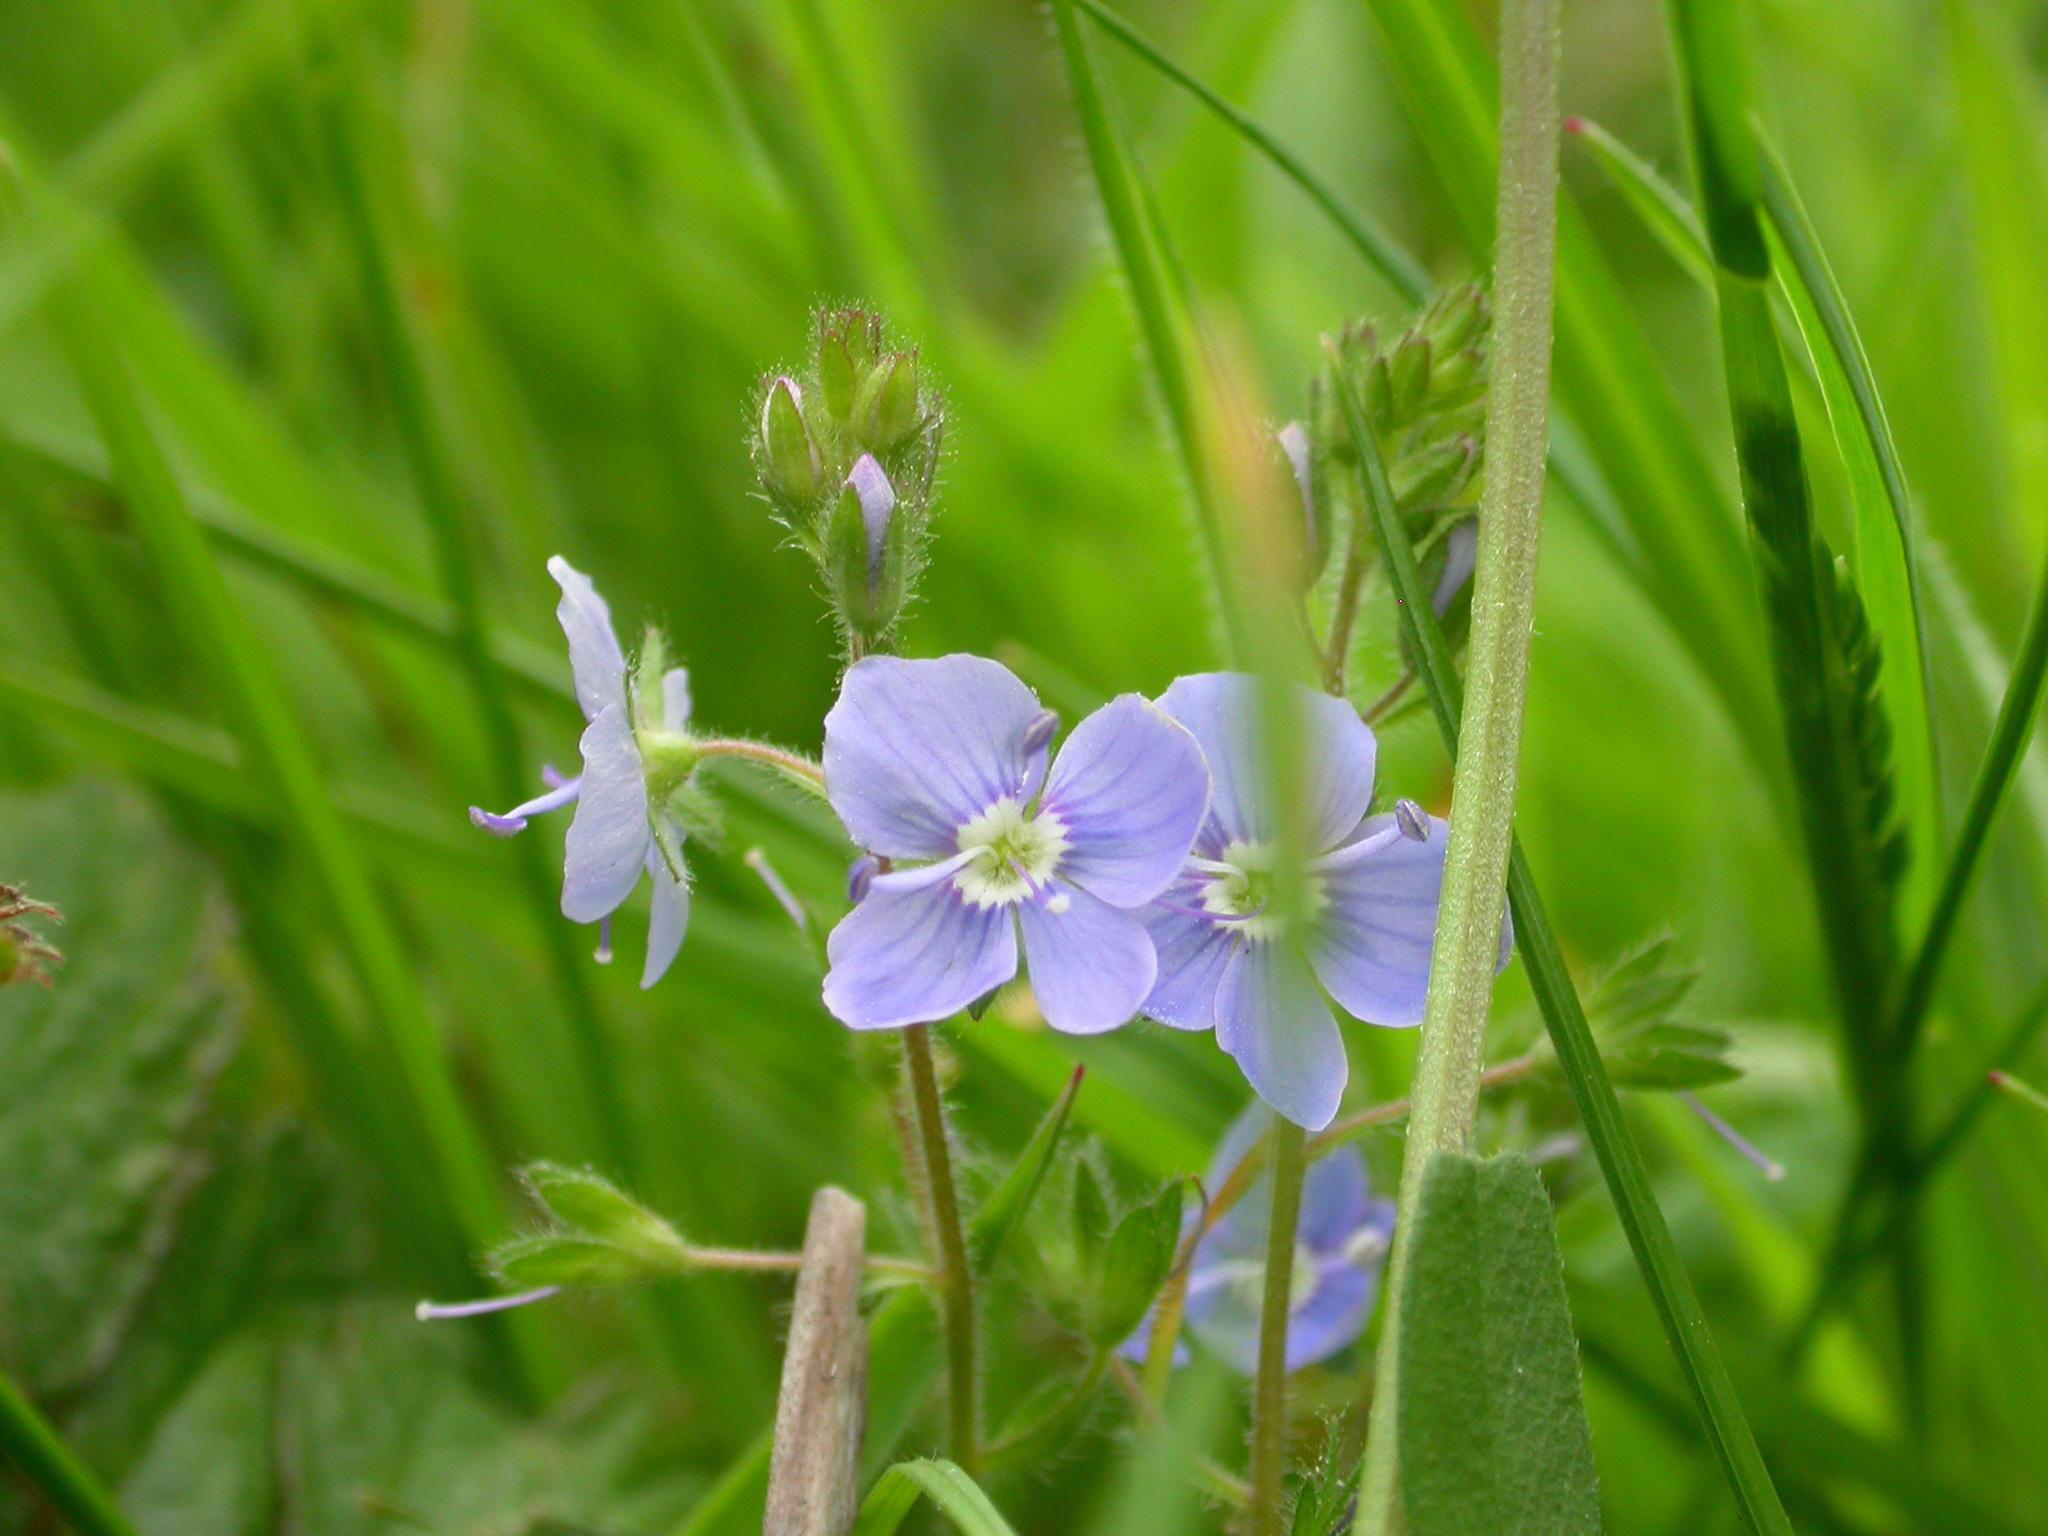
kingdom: Plantae
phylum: Tracheophyta
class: Magnoliopsida
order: Lamiales
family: Plantaginaceae
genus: Veronica
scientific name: Veronica chamaedrys
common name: Germander speedwell
